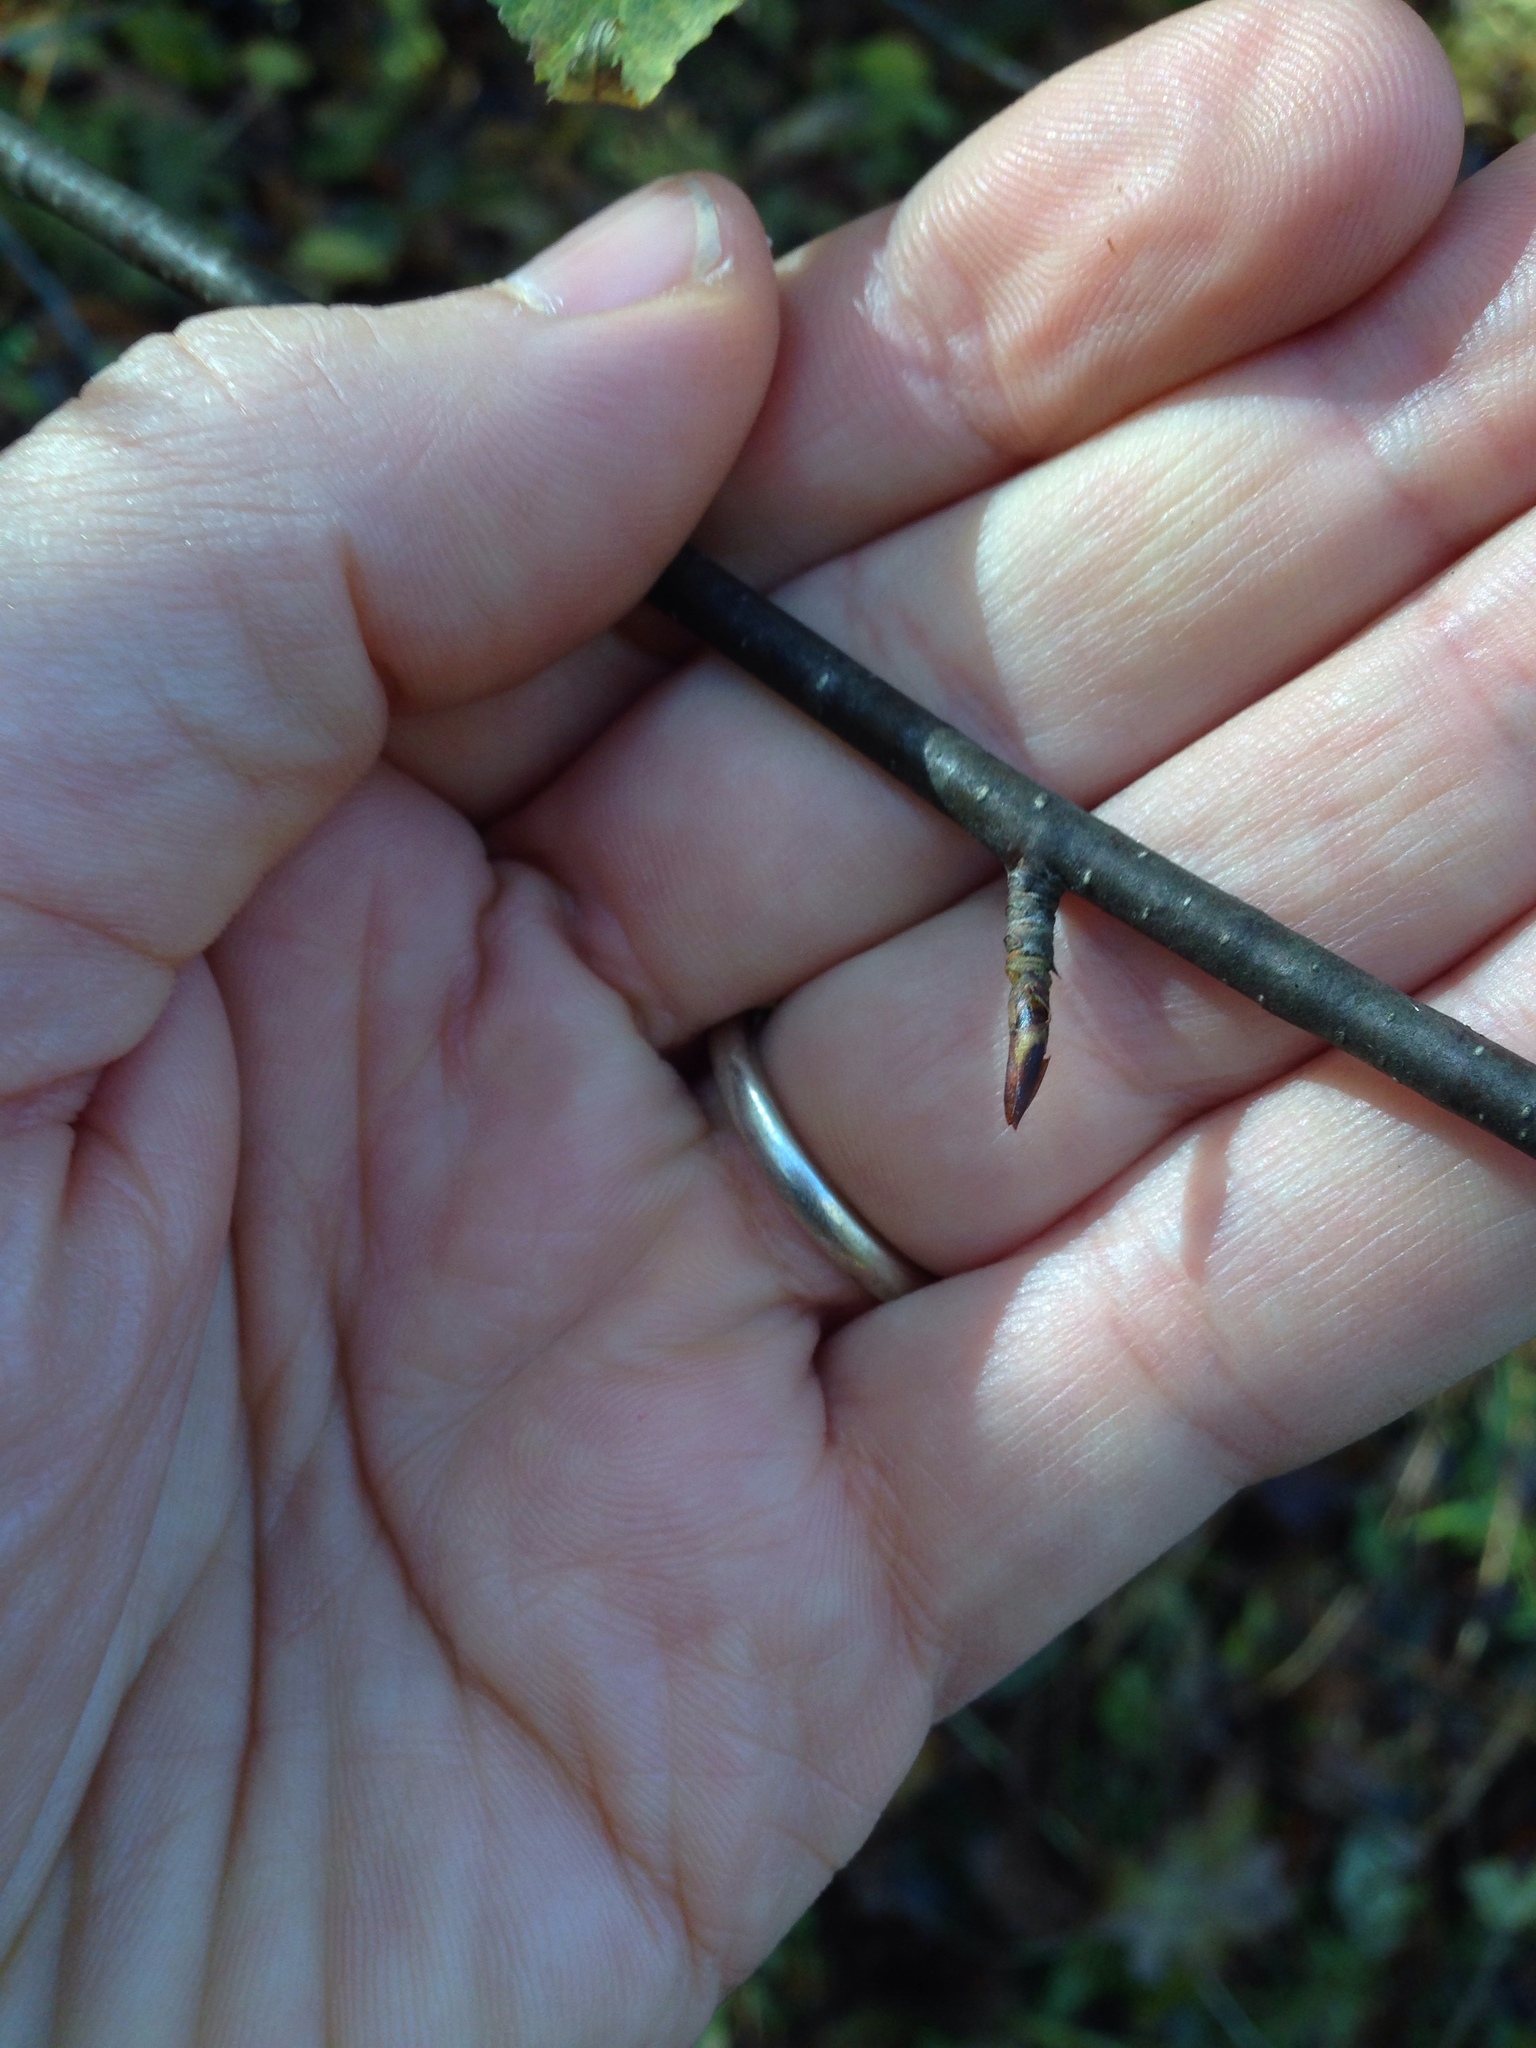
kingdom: Plantae
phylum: Tracheophyta
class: Magnoliopsida
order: Fagales
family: Betulaceae
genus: Betula
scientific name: Betula lenta
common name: Black birch
